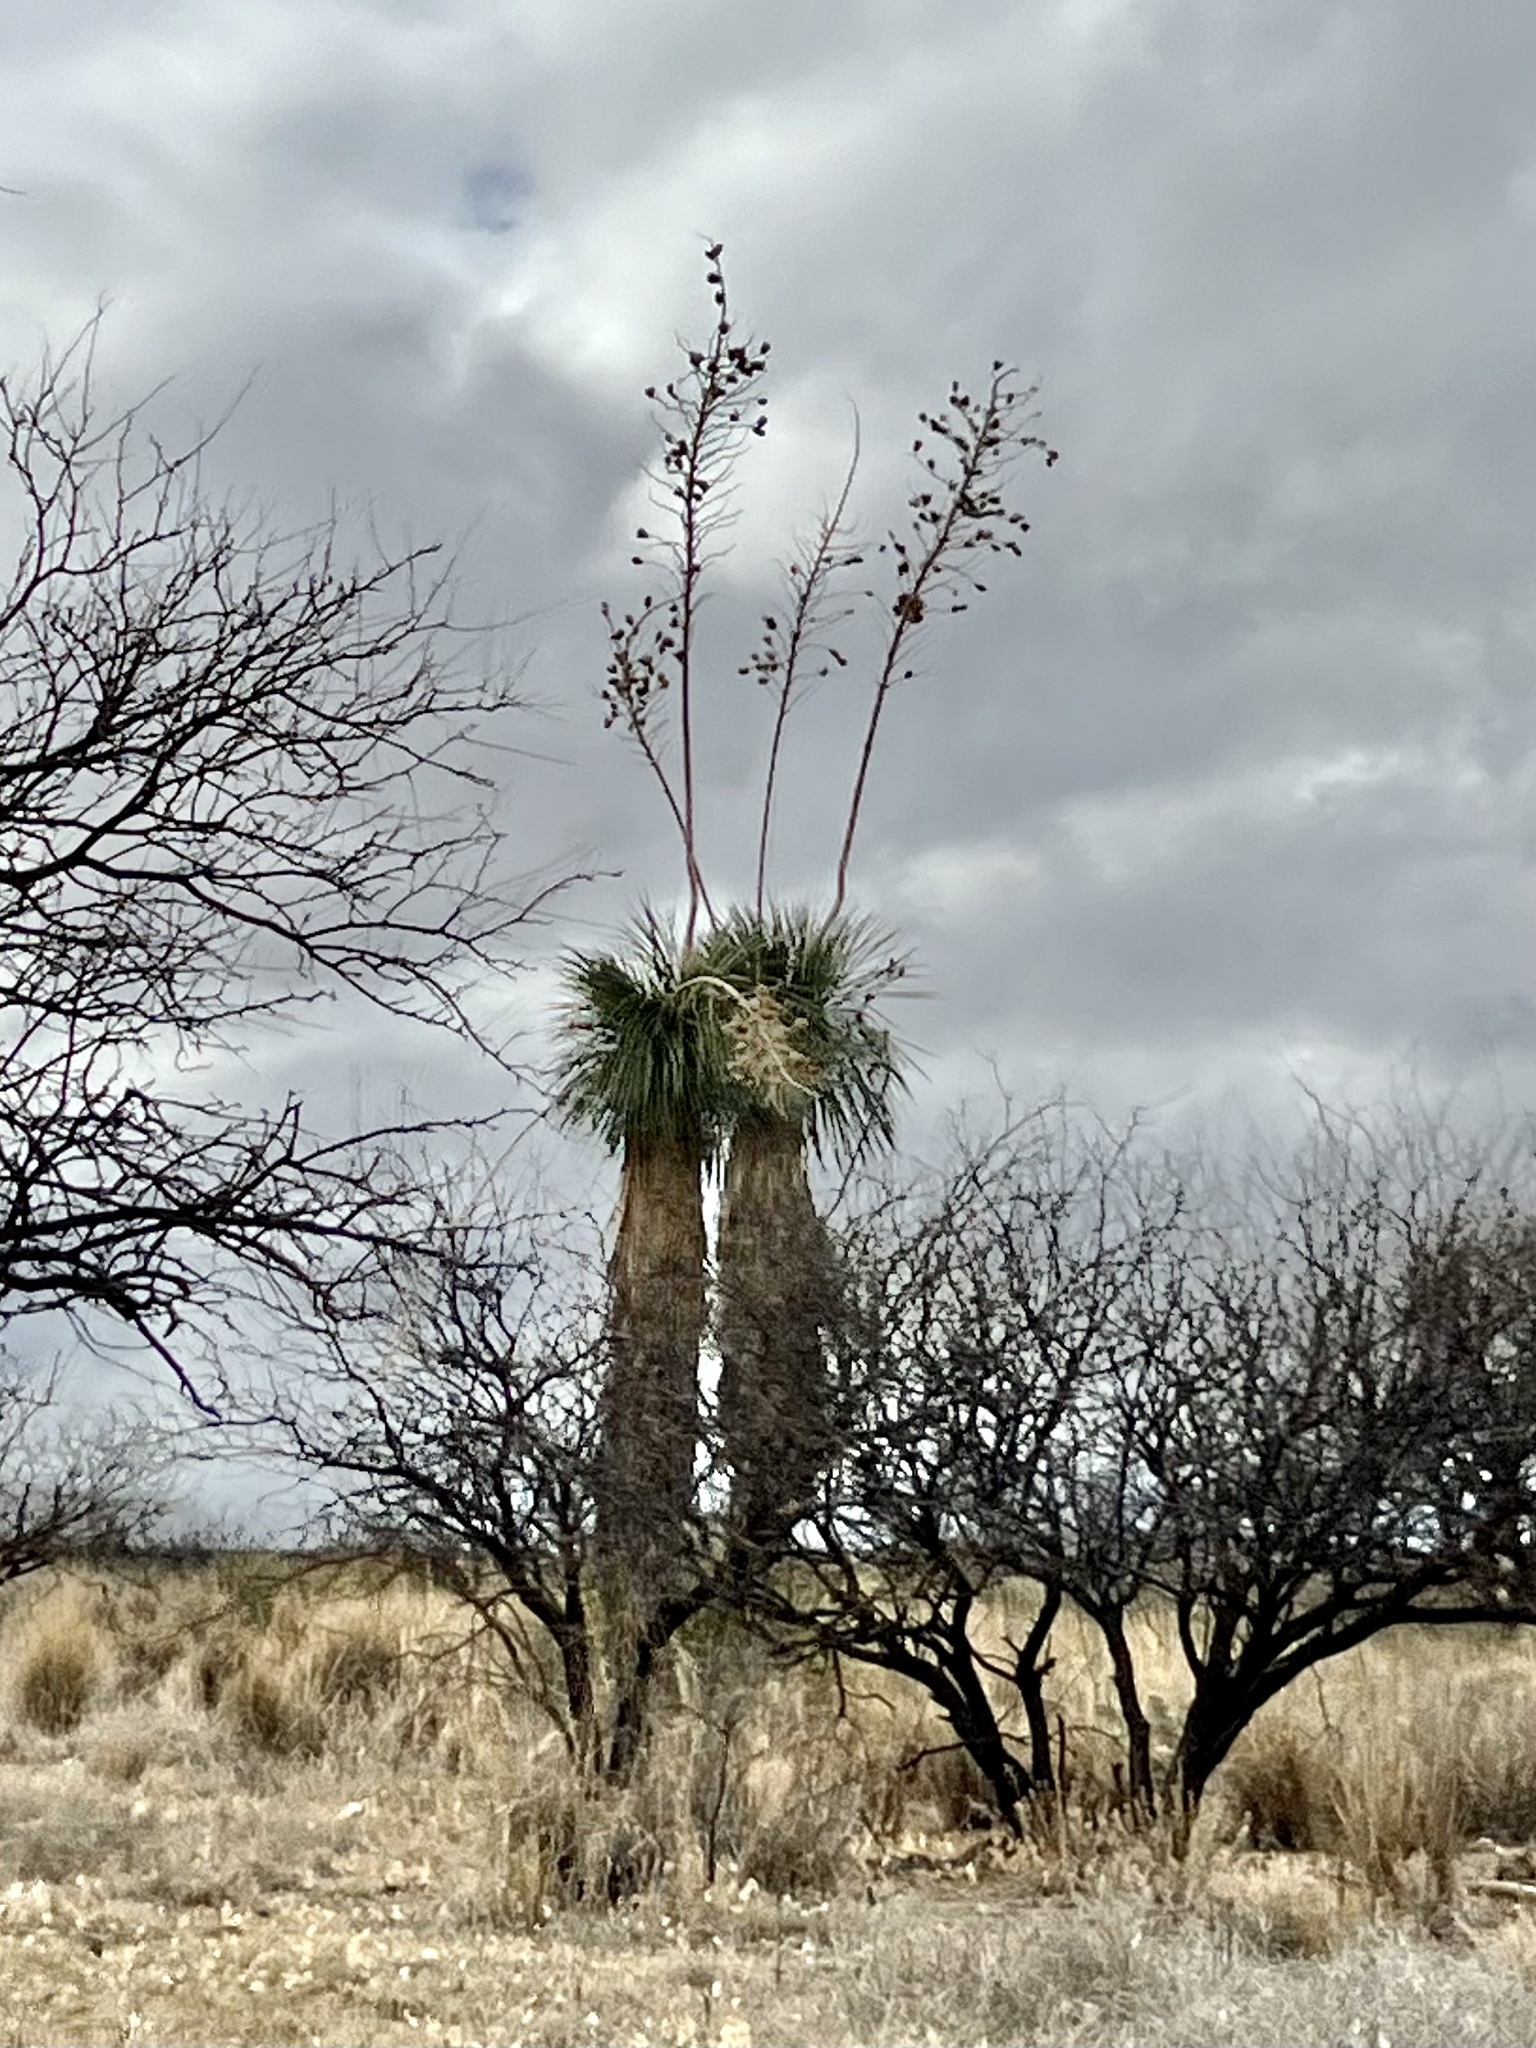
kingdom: Plantae
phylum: Tracheophyta
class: Liliopsida
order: Asparagales
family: Asparagaceae
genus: Yucca
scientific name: Yucca elata
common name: Palmella
